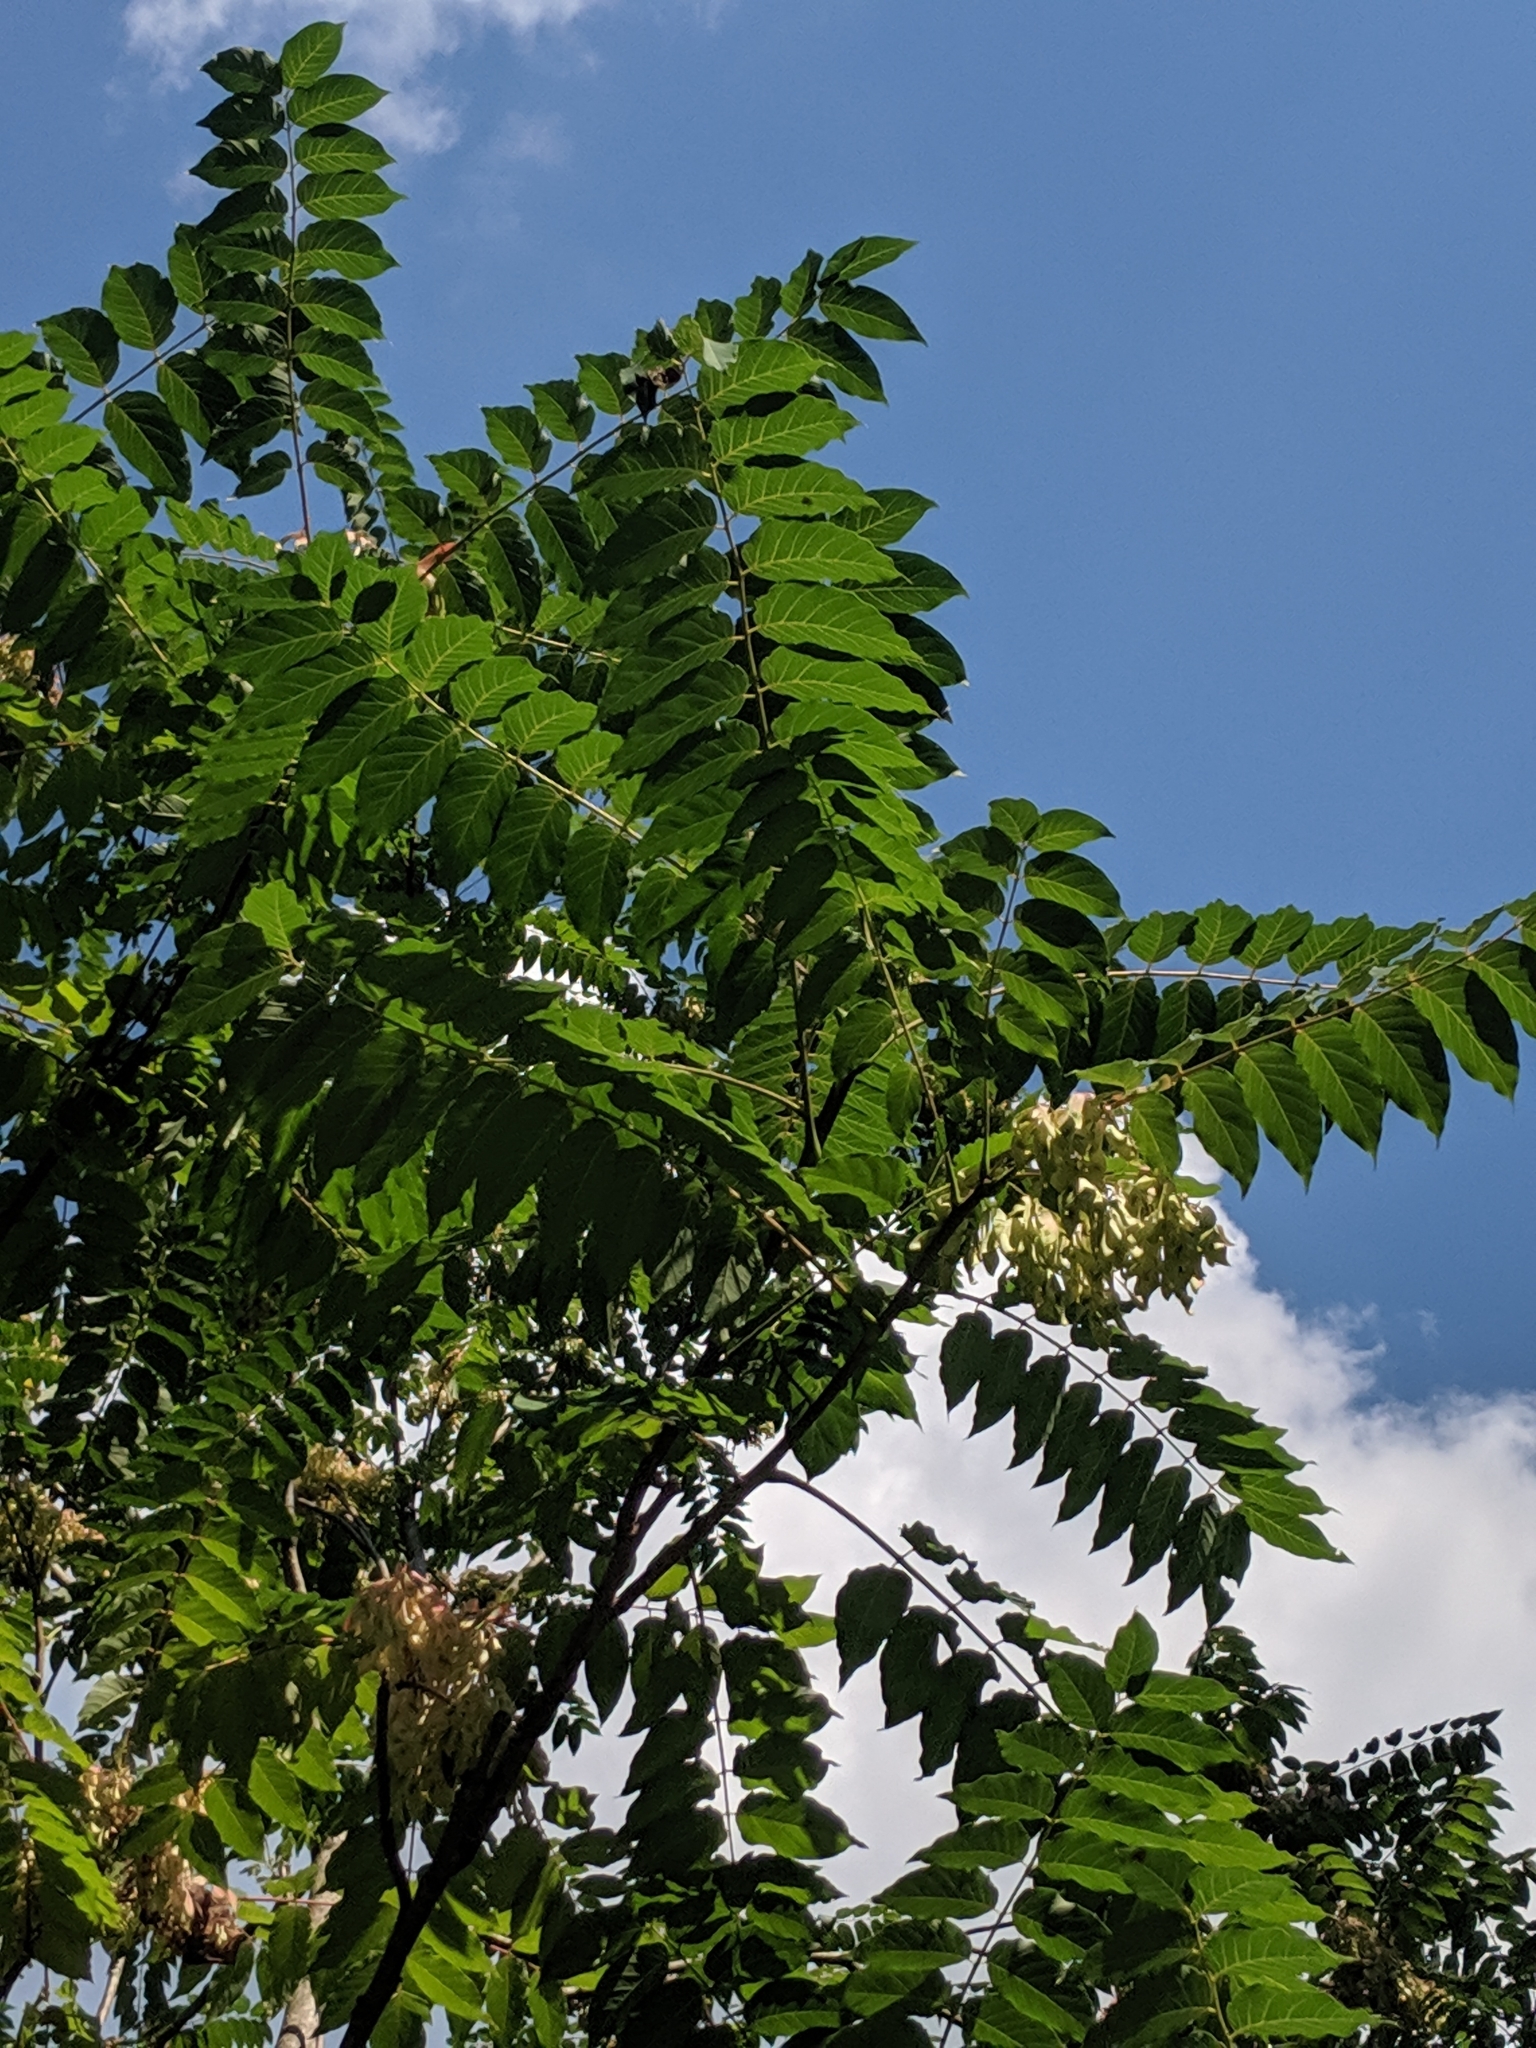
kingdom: Plantae
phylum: Tracheophyta
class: Magnoliopsida
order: Sapindales
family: Simaroubaceae
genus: Ailanthus
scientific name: Ailanthus altissima
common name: Tree-of-heaven
